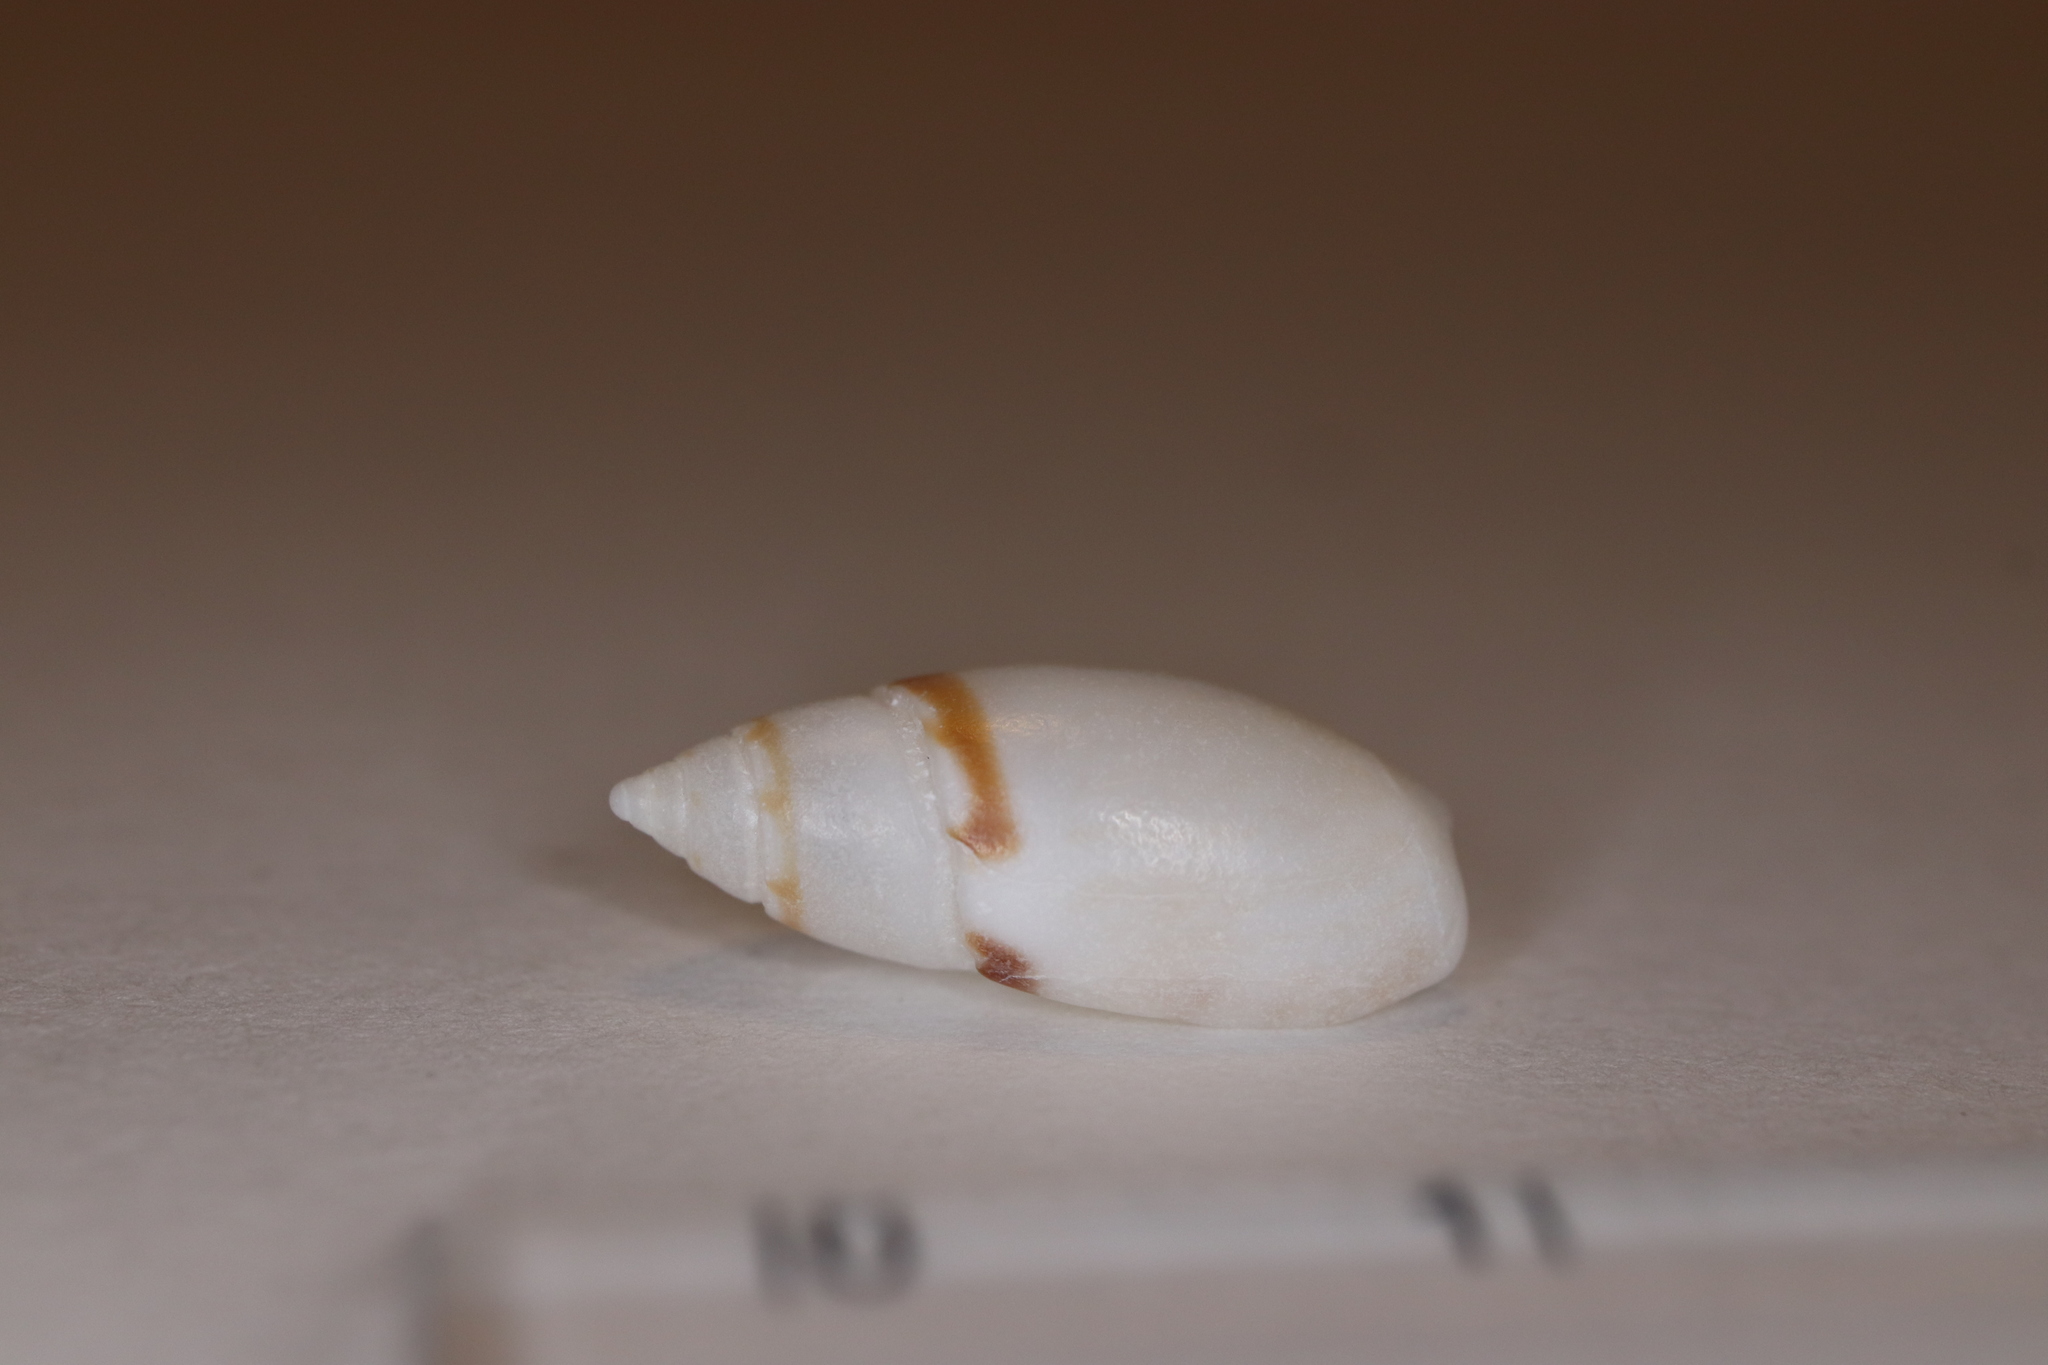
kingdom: Animalia
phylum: Mollusca
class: Gastropoda
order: Neogastropoda
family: Olividae
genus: Olivella
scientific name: Olivella mandarina
